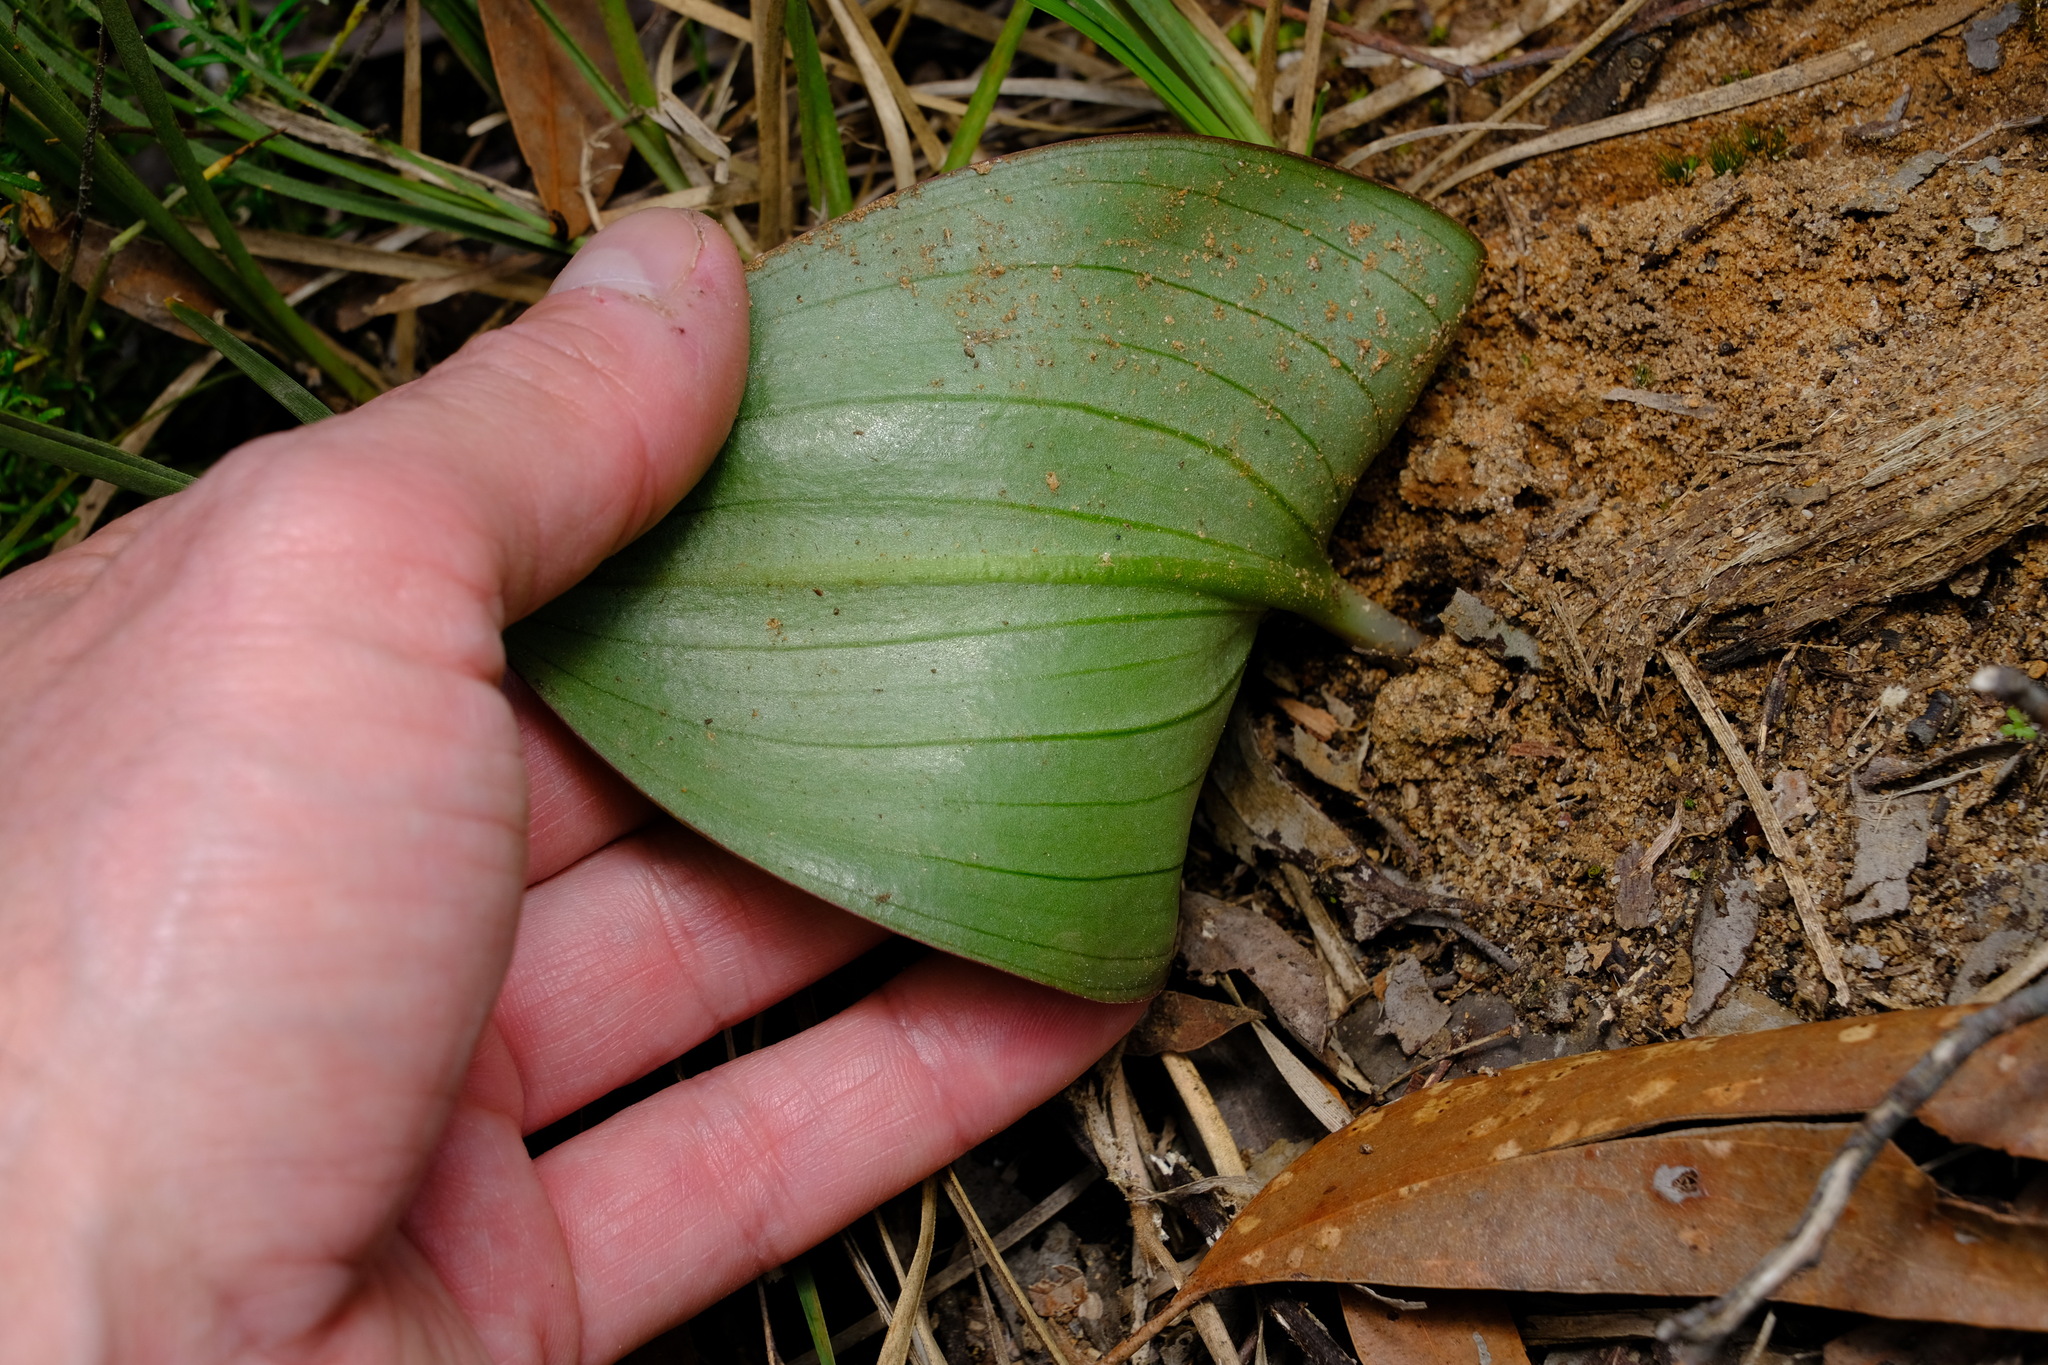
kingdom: Plantae
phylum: Tracheophyta
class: Liliopsida
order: Asparagales
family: Orchidaceae
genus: Pyrorchis
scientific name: Pyrorchis nigricans
